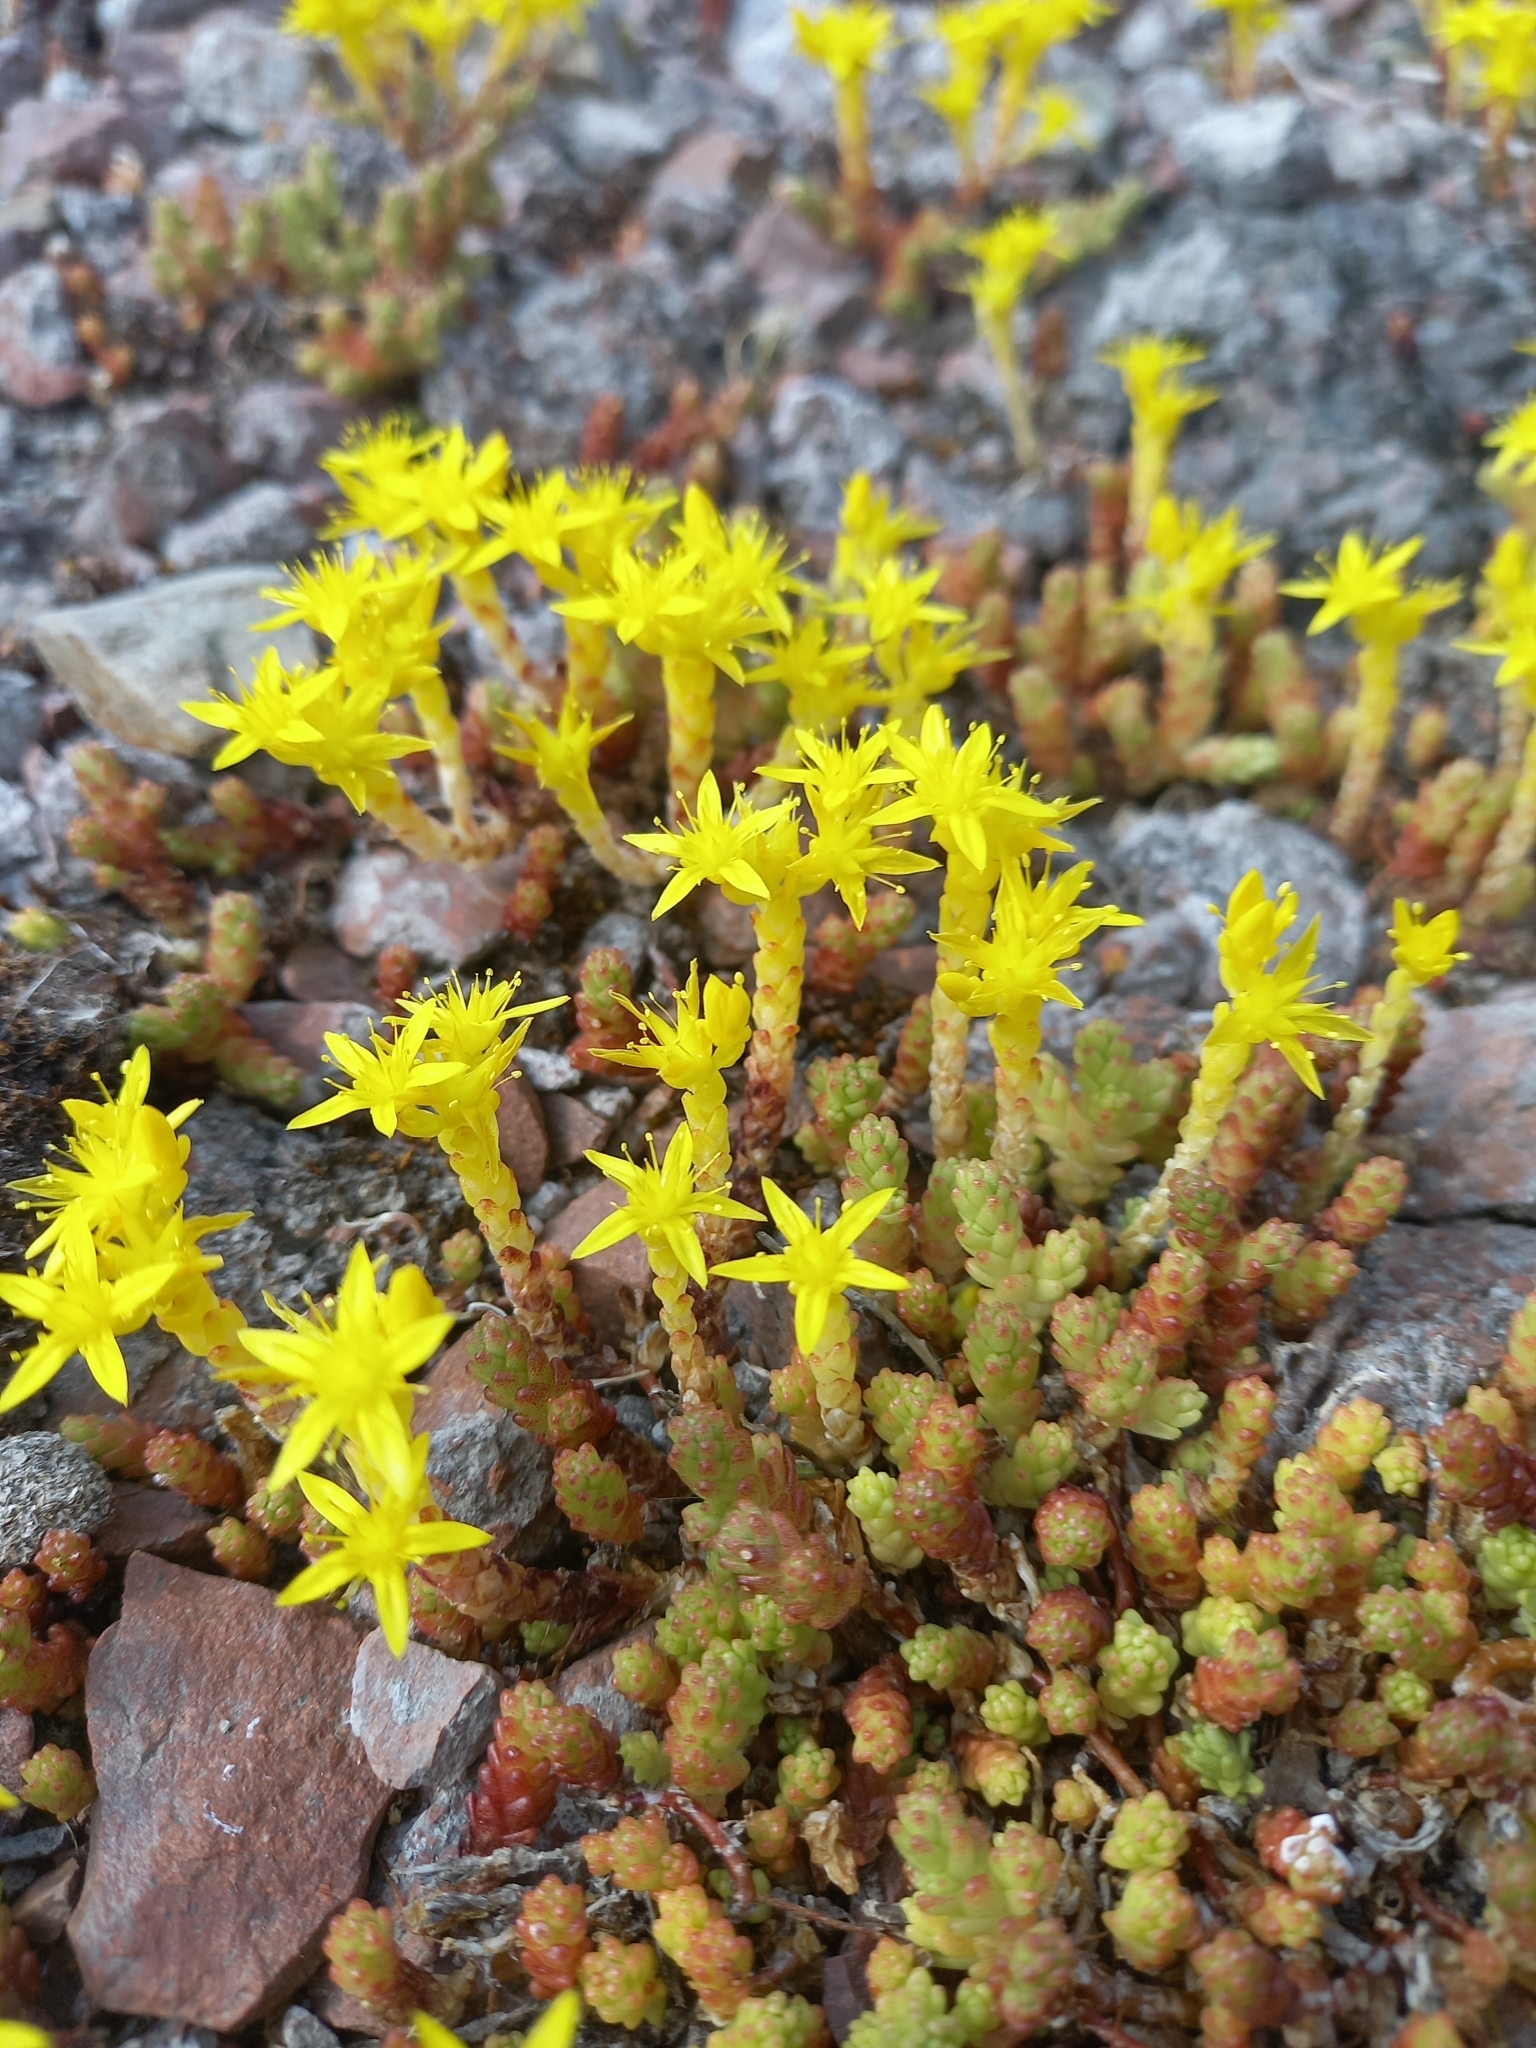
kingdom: Plantae
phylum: Tracheophyta
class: Magnoliopsida
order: Saxifragales
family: Crassulaceae
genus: Sedum
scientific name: Sedum acre
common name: Biting stonecrop
